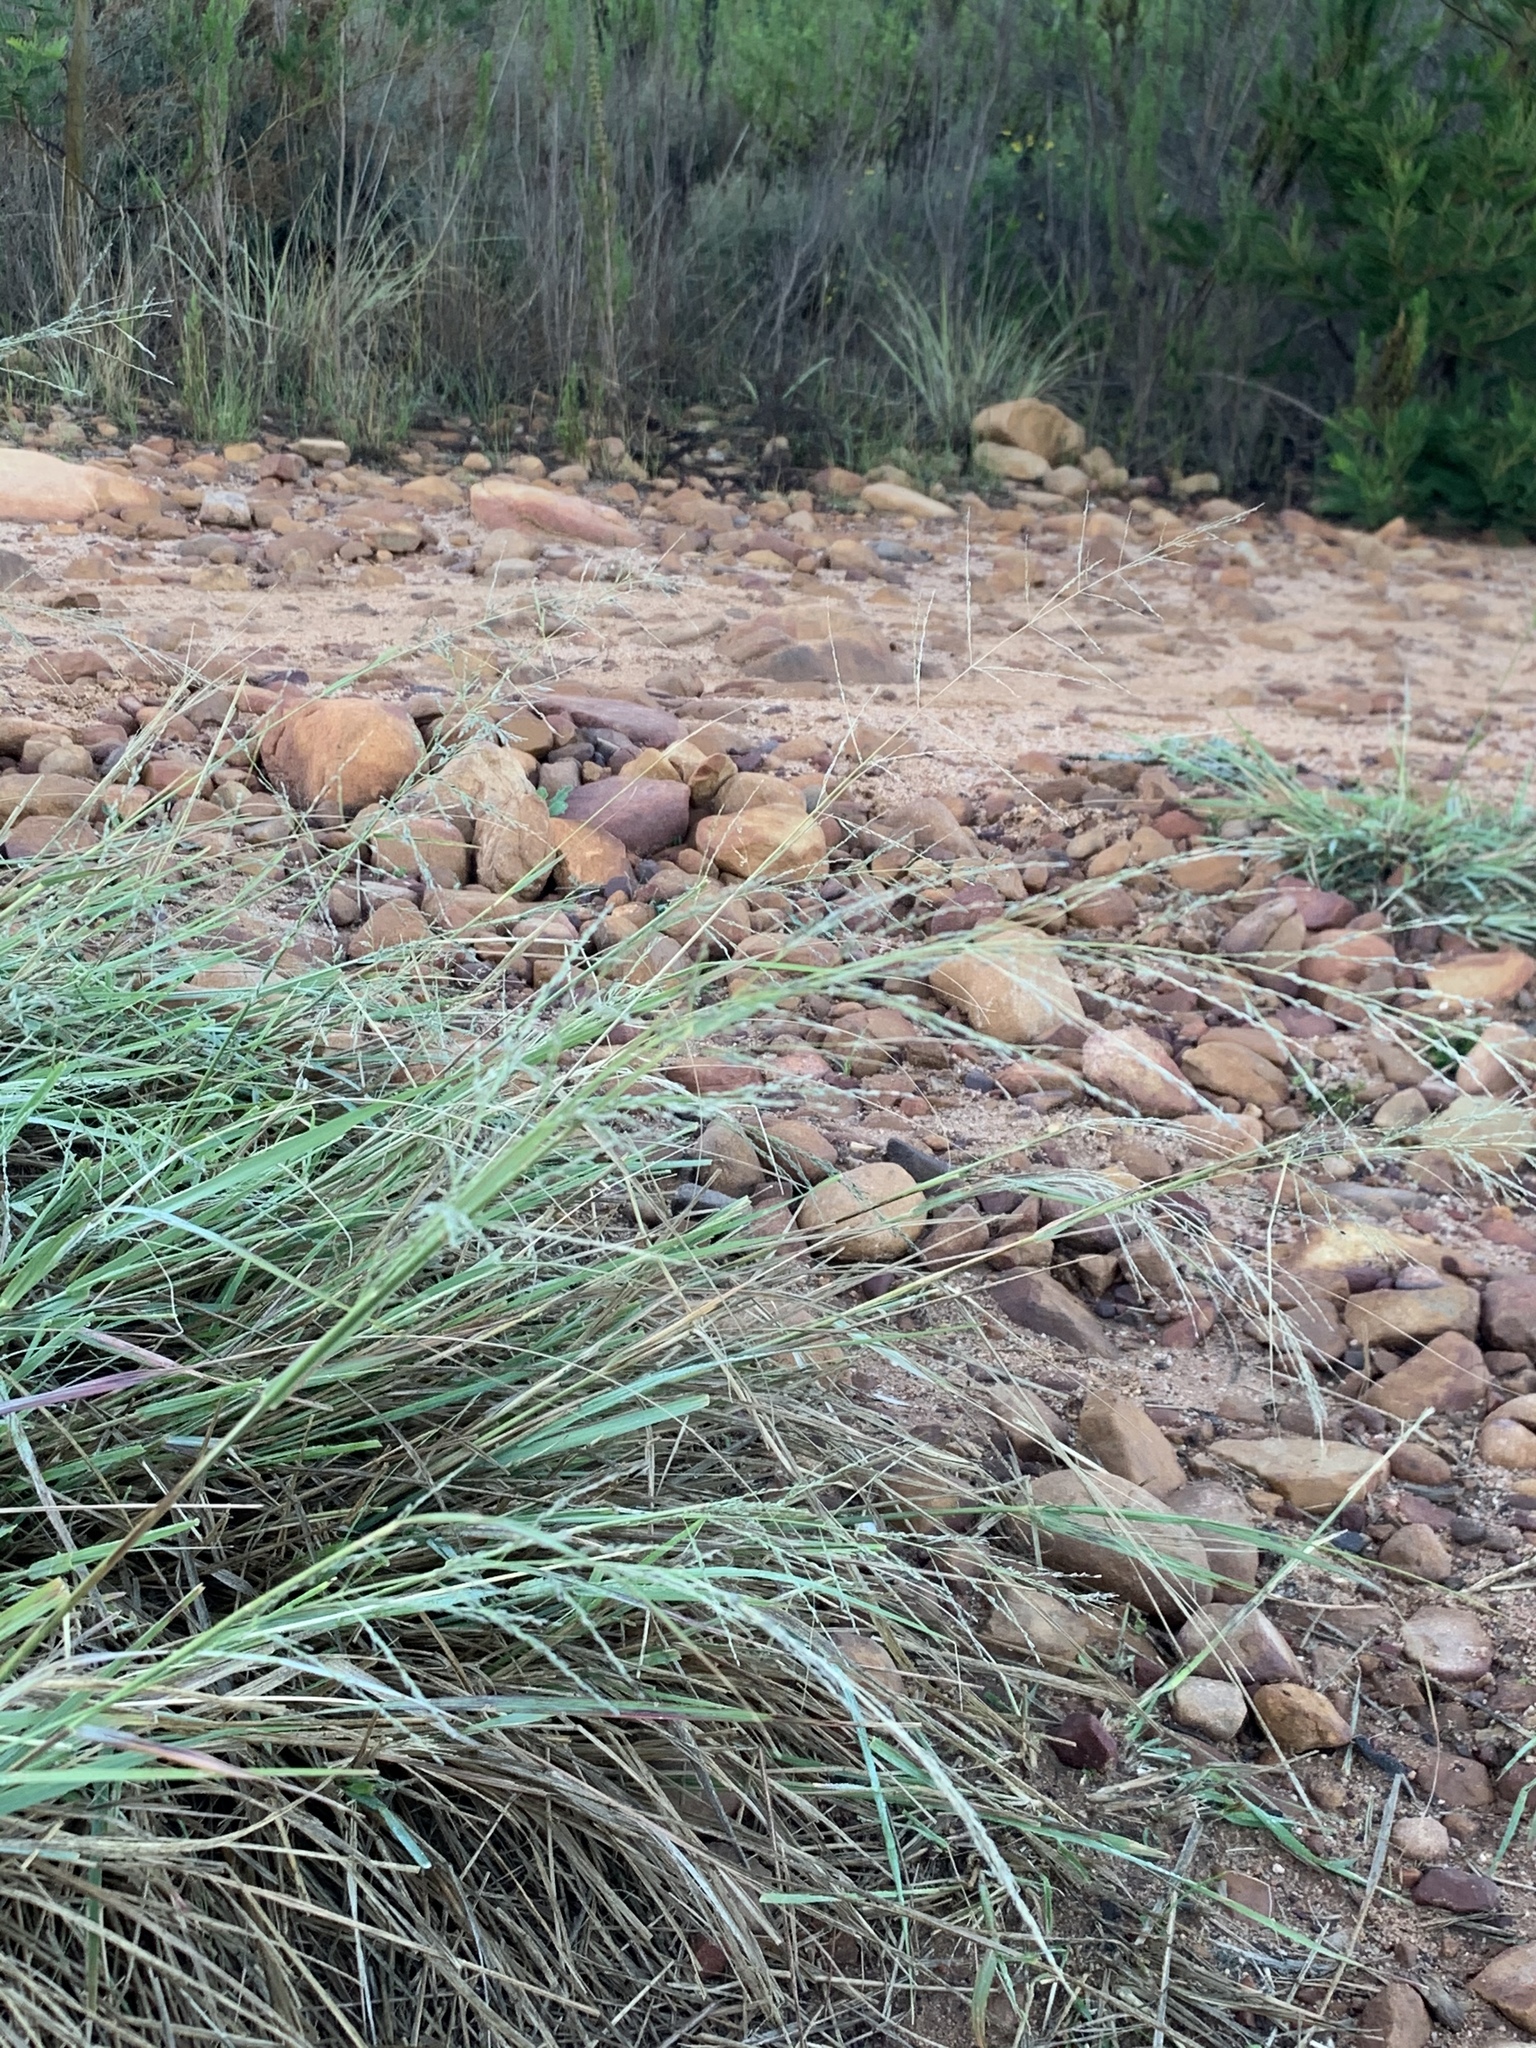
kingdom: Plantae
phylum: Tracheophyta
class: Liliopsida
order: Poales
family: Poaceae
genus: Eragrostis
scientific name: Eragrostis curvula
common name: African love-grass
